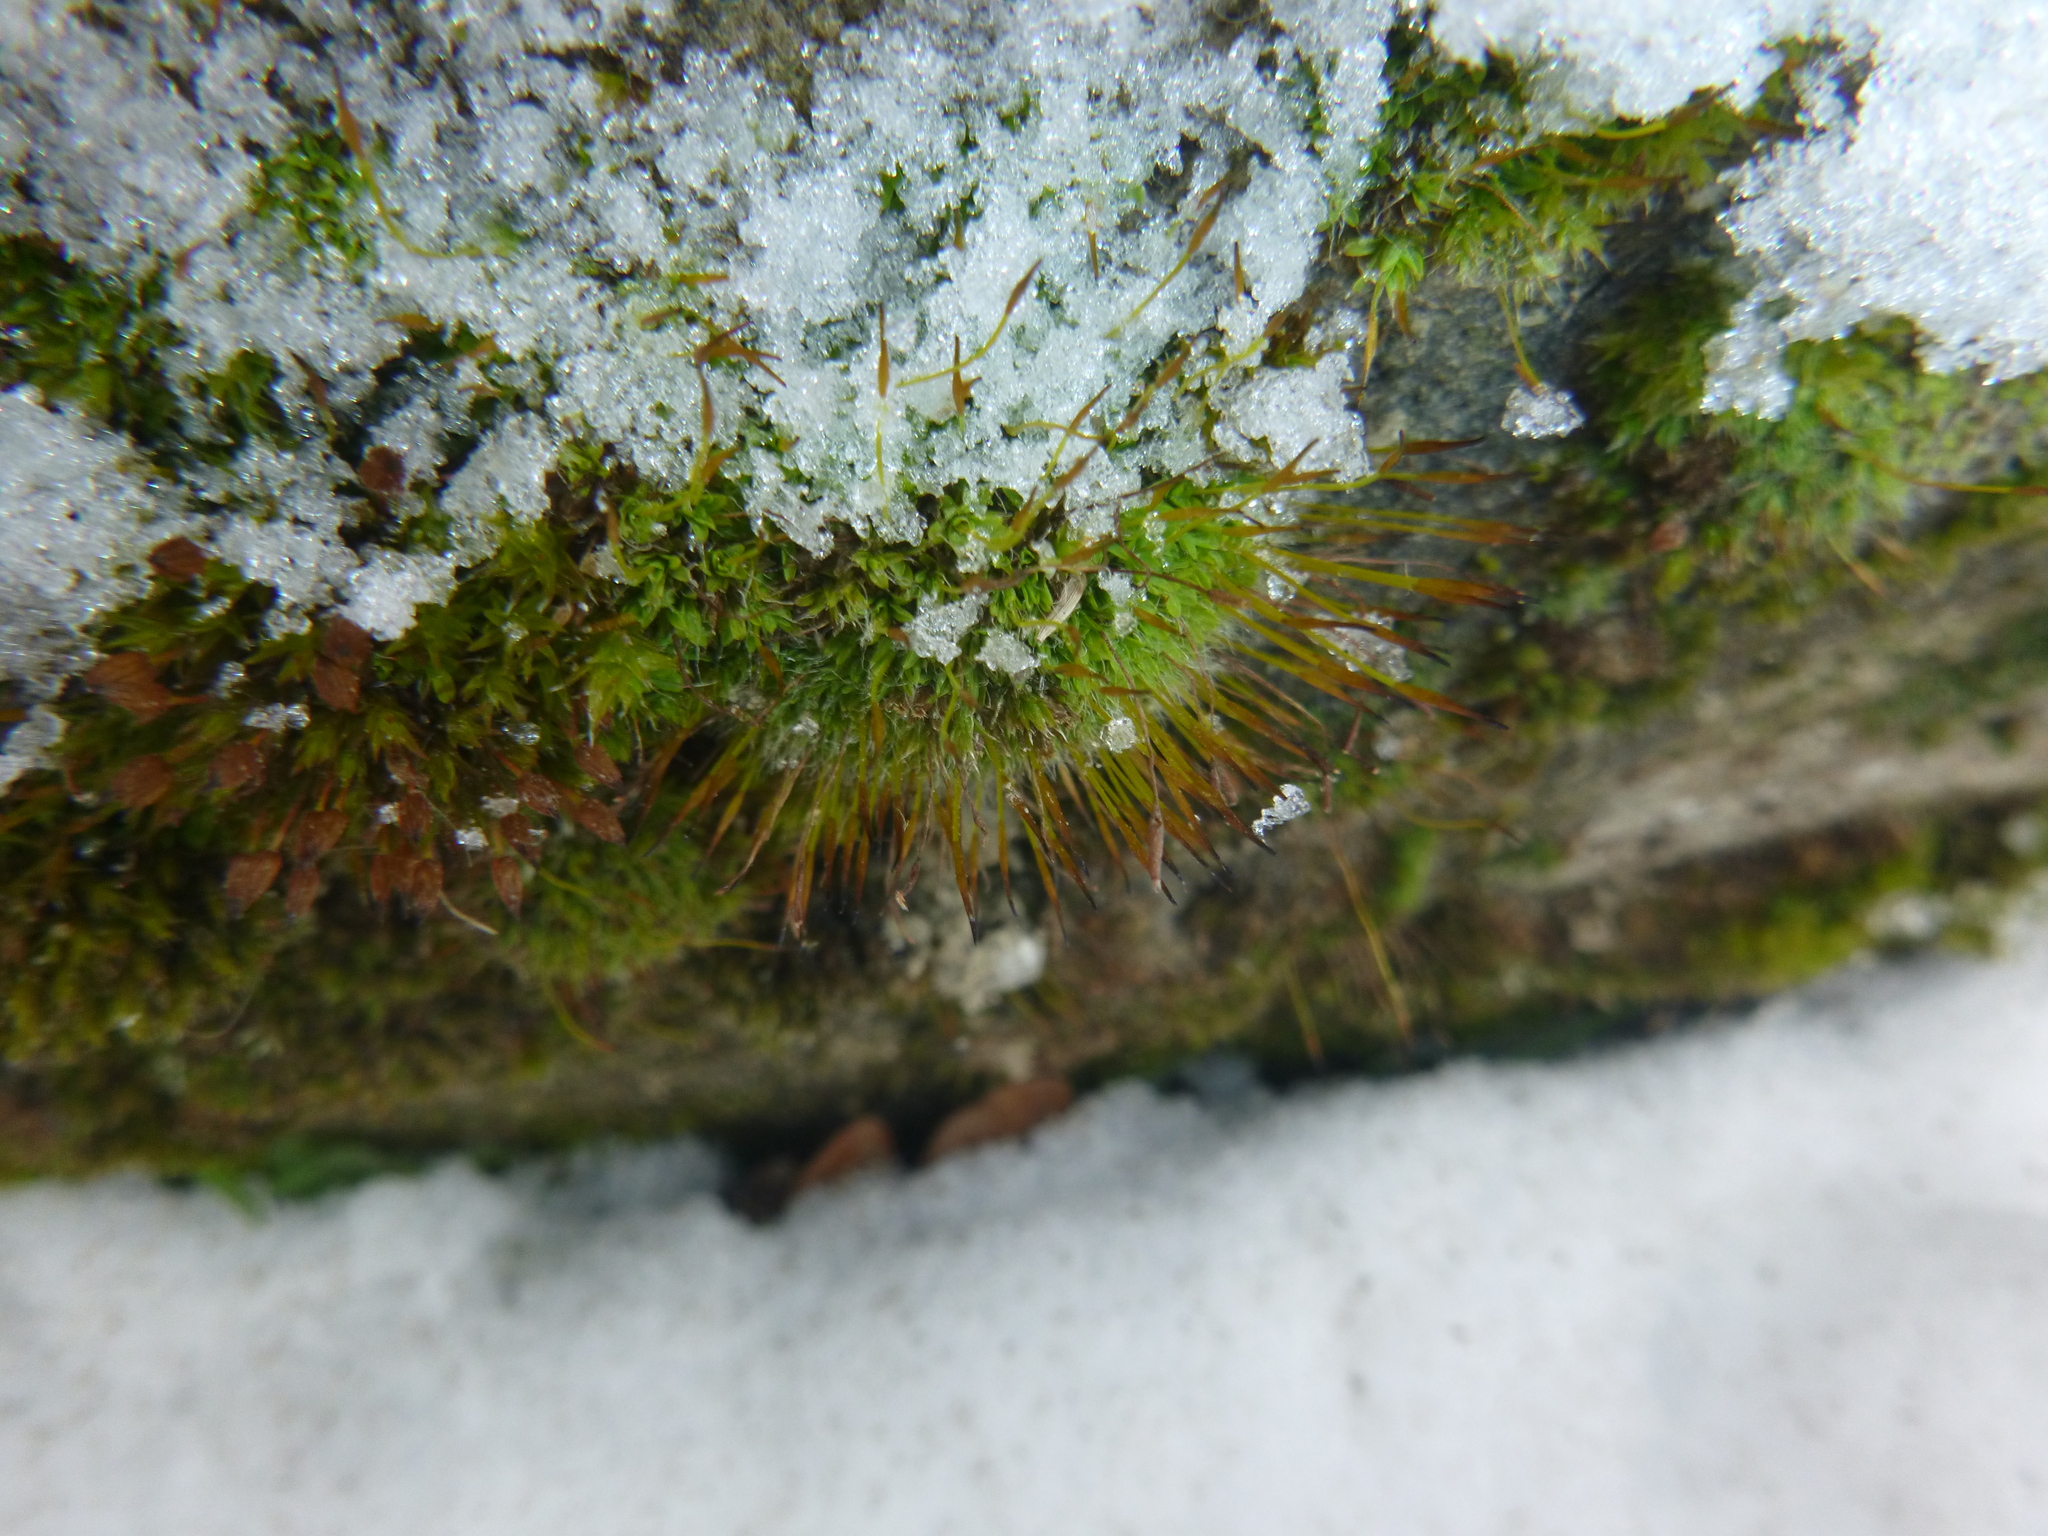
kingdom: Plantae
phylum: Bryophyta
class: Bryopsida
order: Pottiales
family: Pottiaceae
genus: Tortula
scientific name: Tortula muralis
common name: Wall screw-moss
